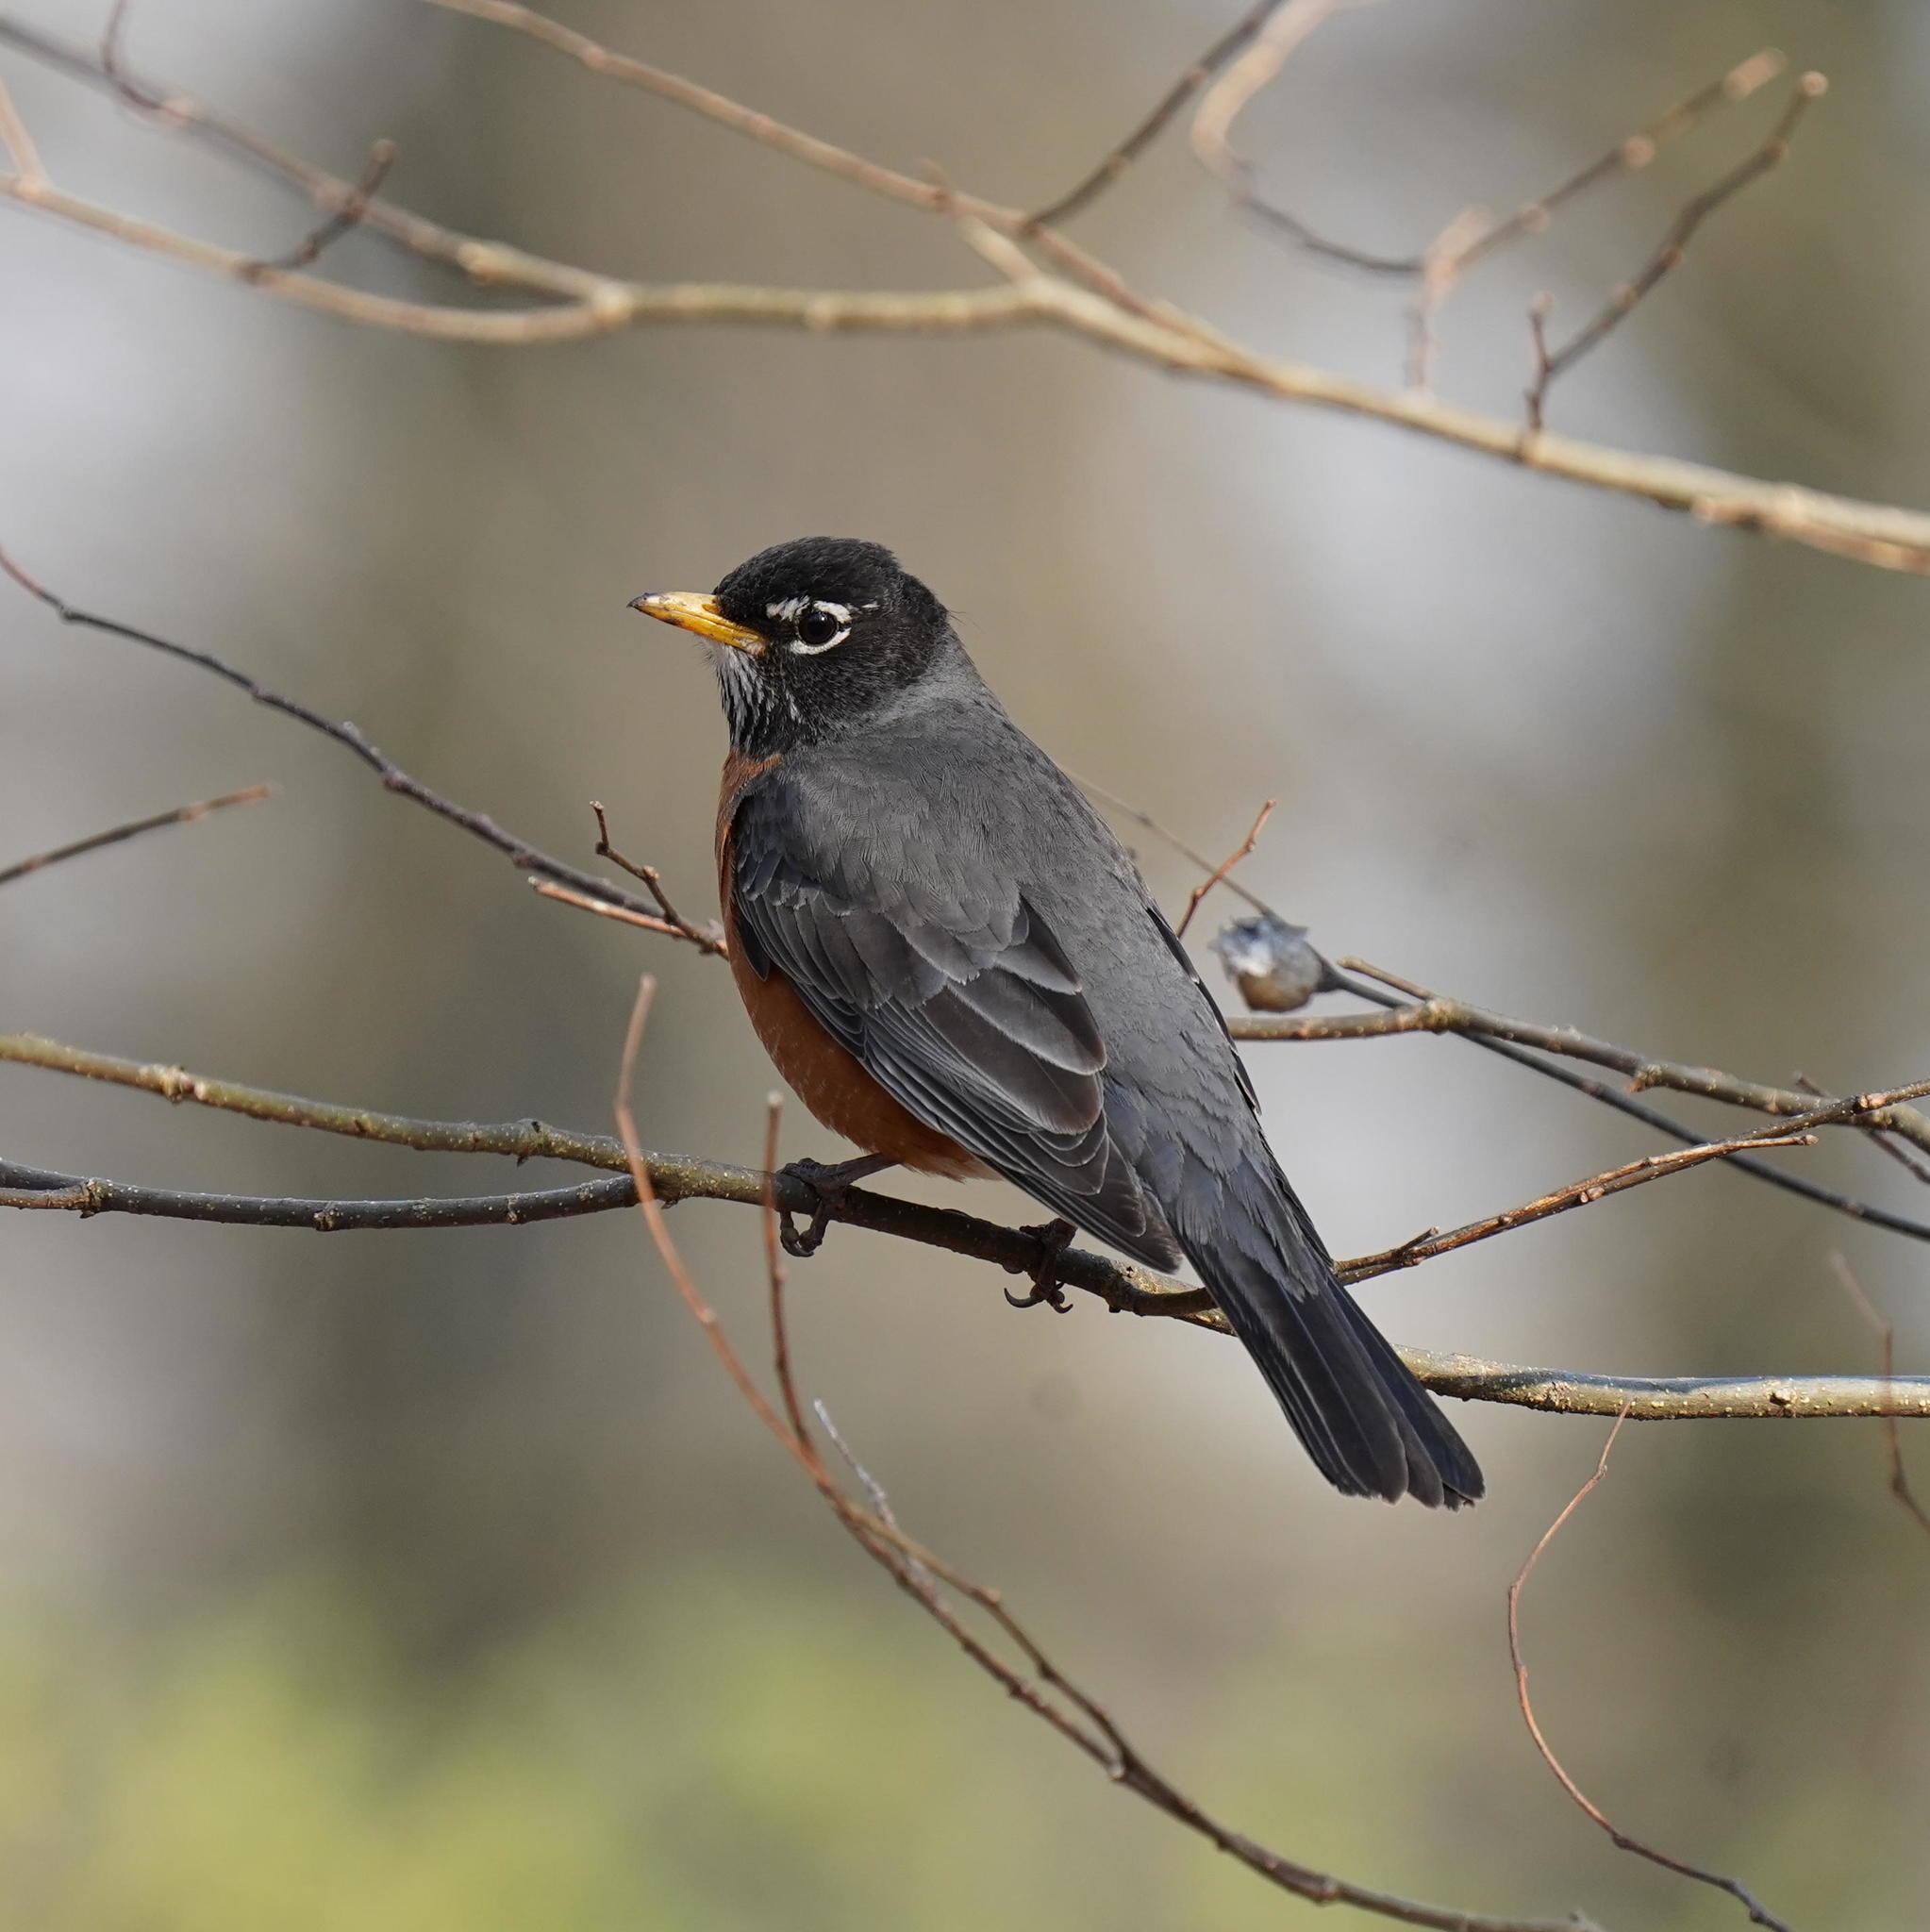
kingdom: Animalia
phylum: Chordata
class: Aves
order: Passeriformes
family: Turdidae
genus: Turdus
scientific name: Turdus migratorius
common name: American robin
